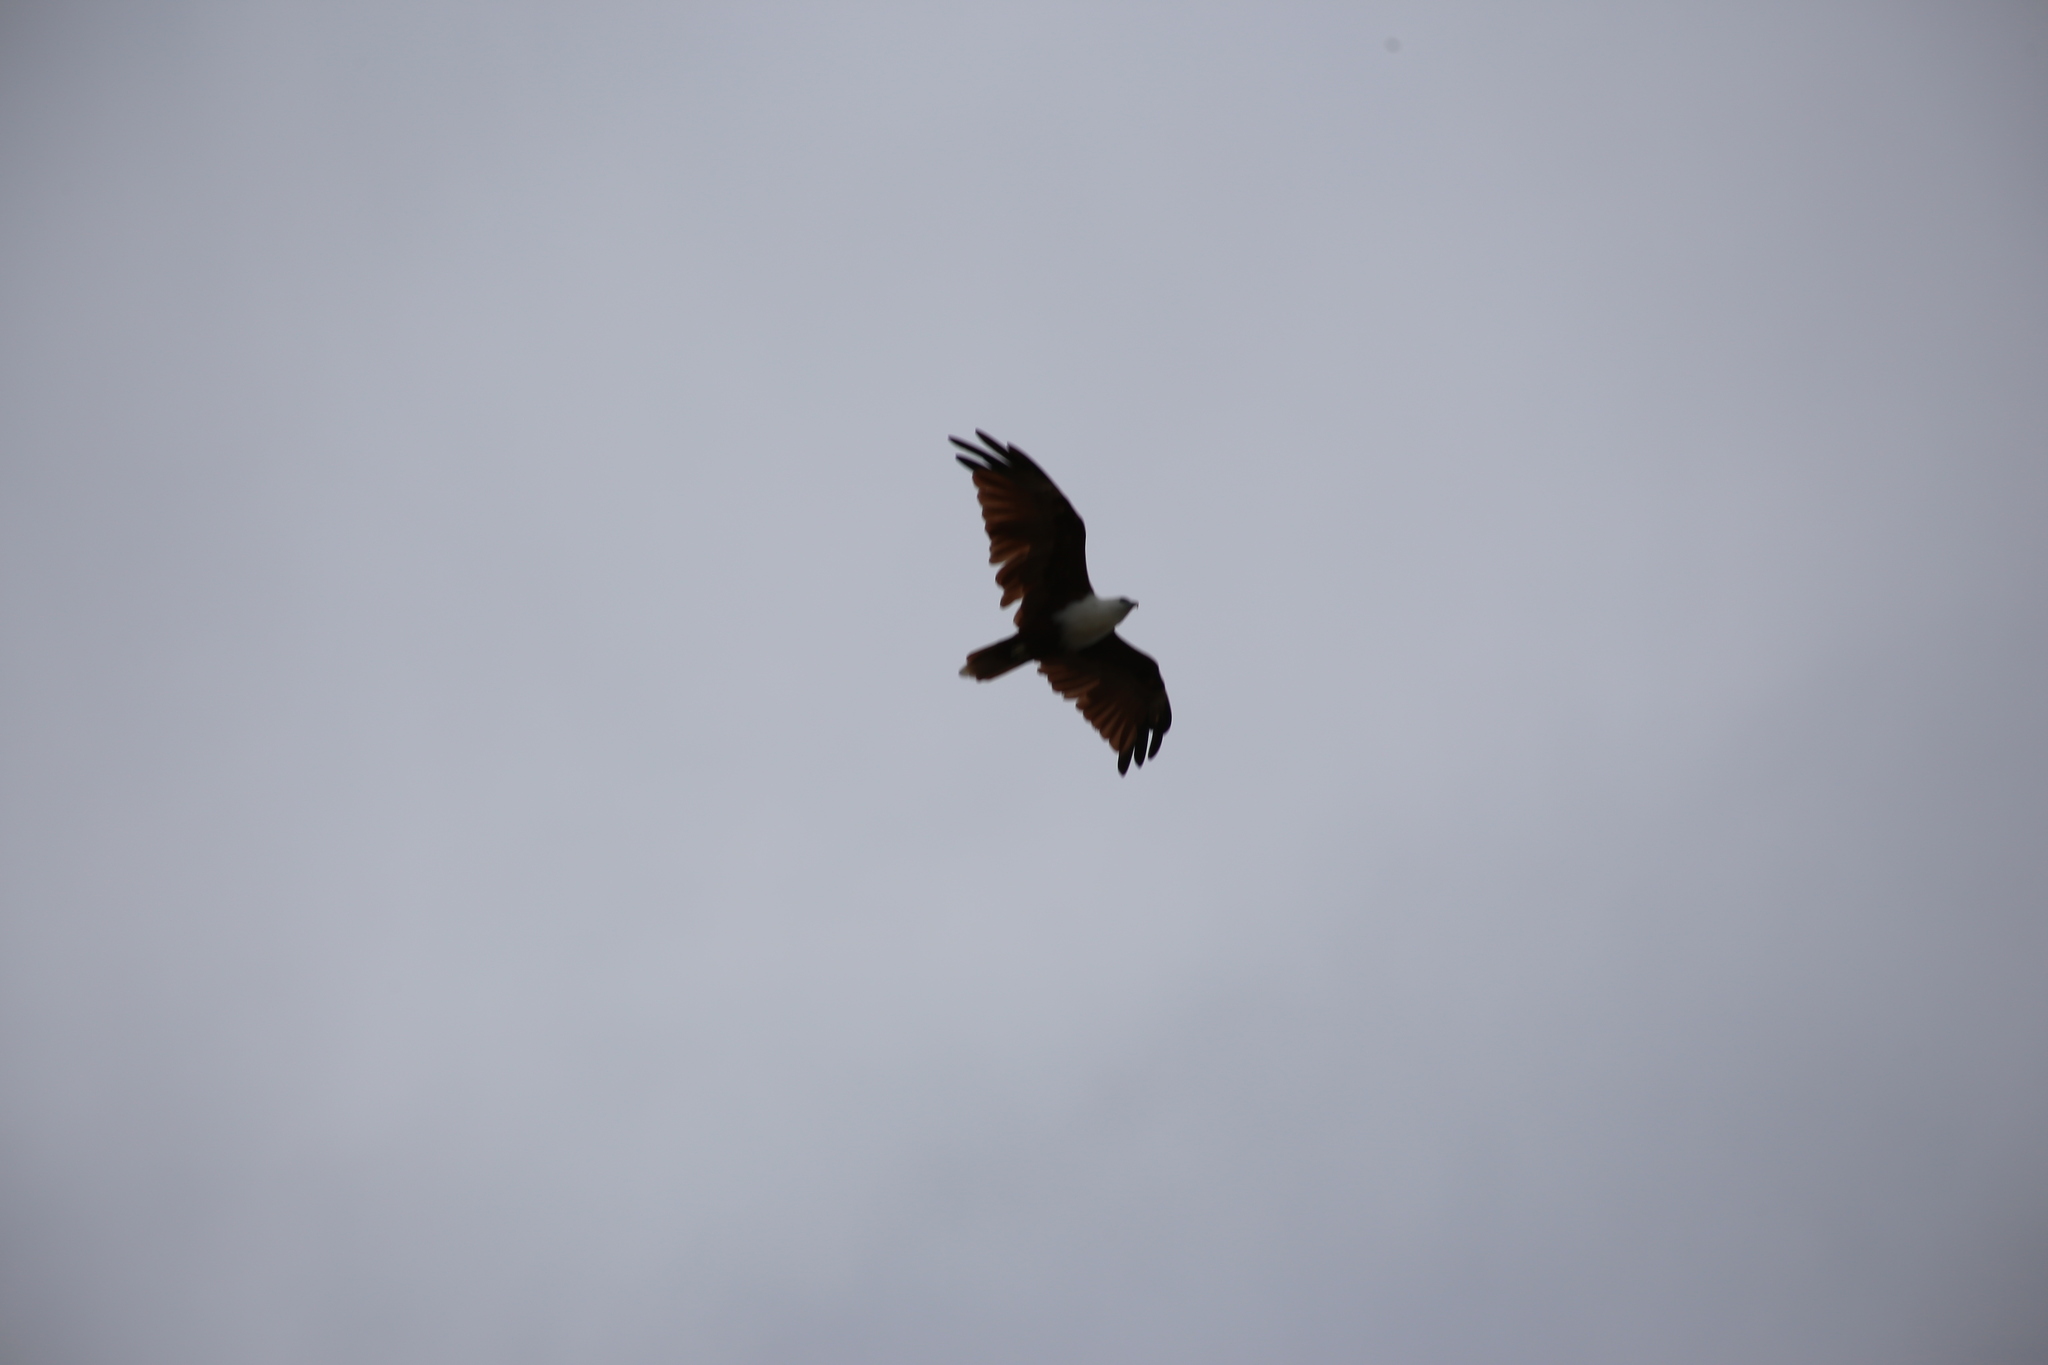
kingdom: Animalia
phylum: Chordata
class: Aves
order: Accipitriformes
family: Accipitridae
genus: Haliastur
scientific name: Haliastur indus
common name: Brahminy kite
